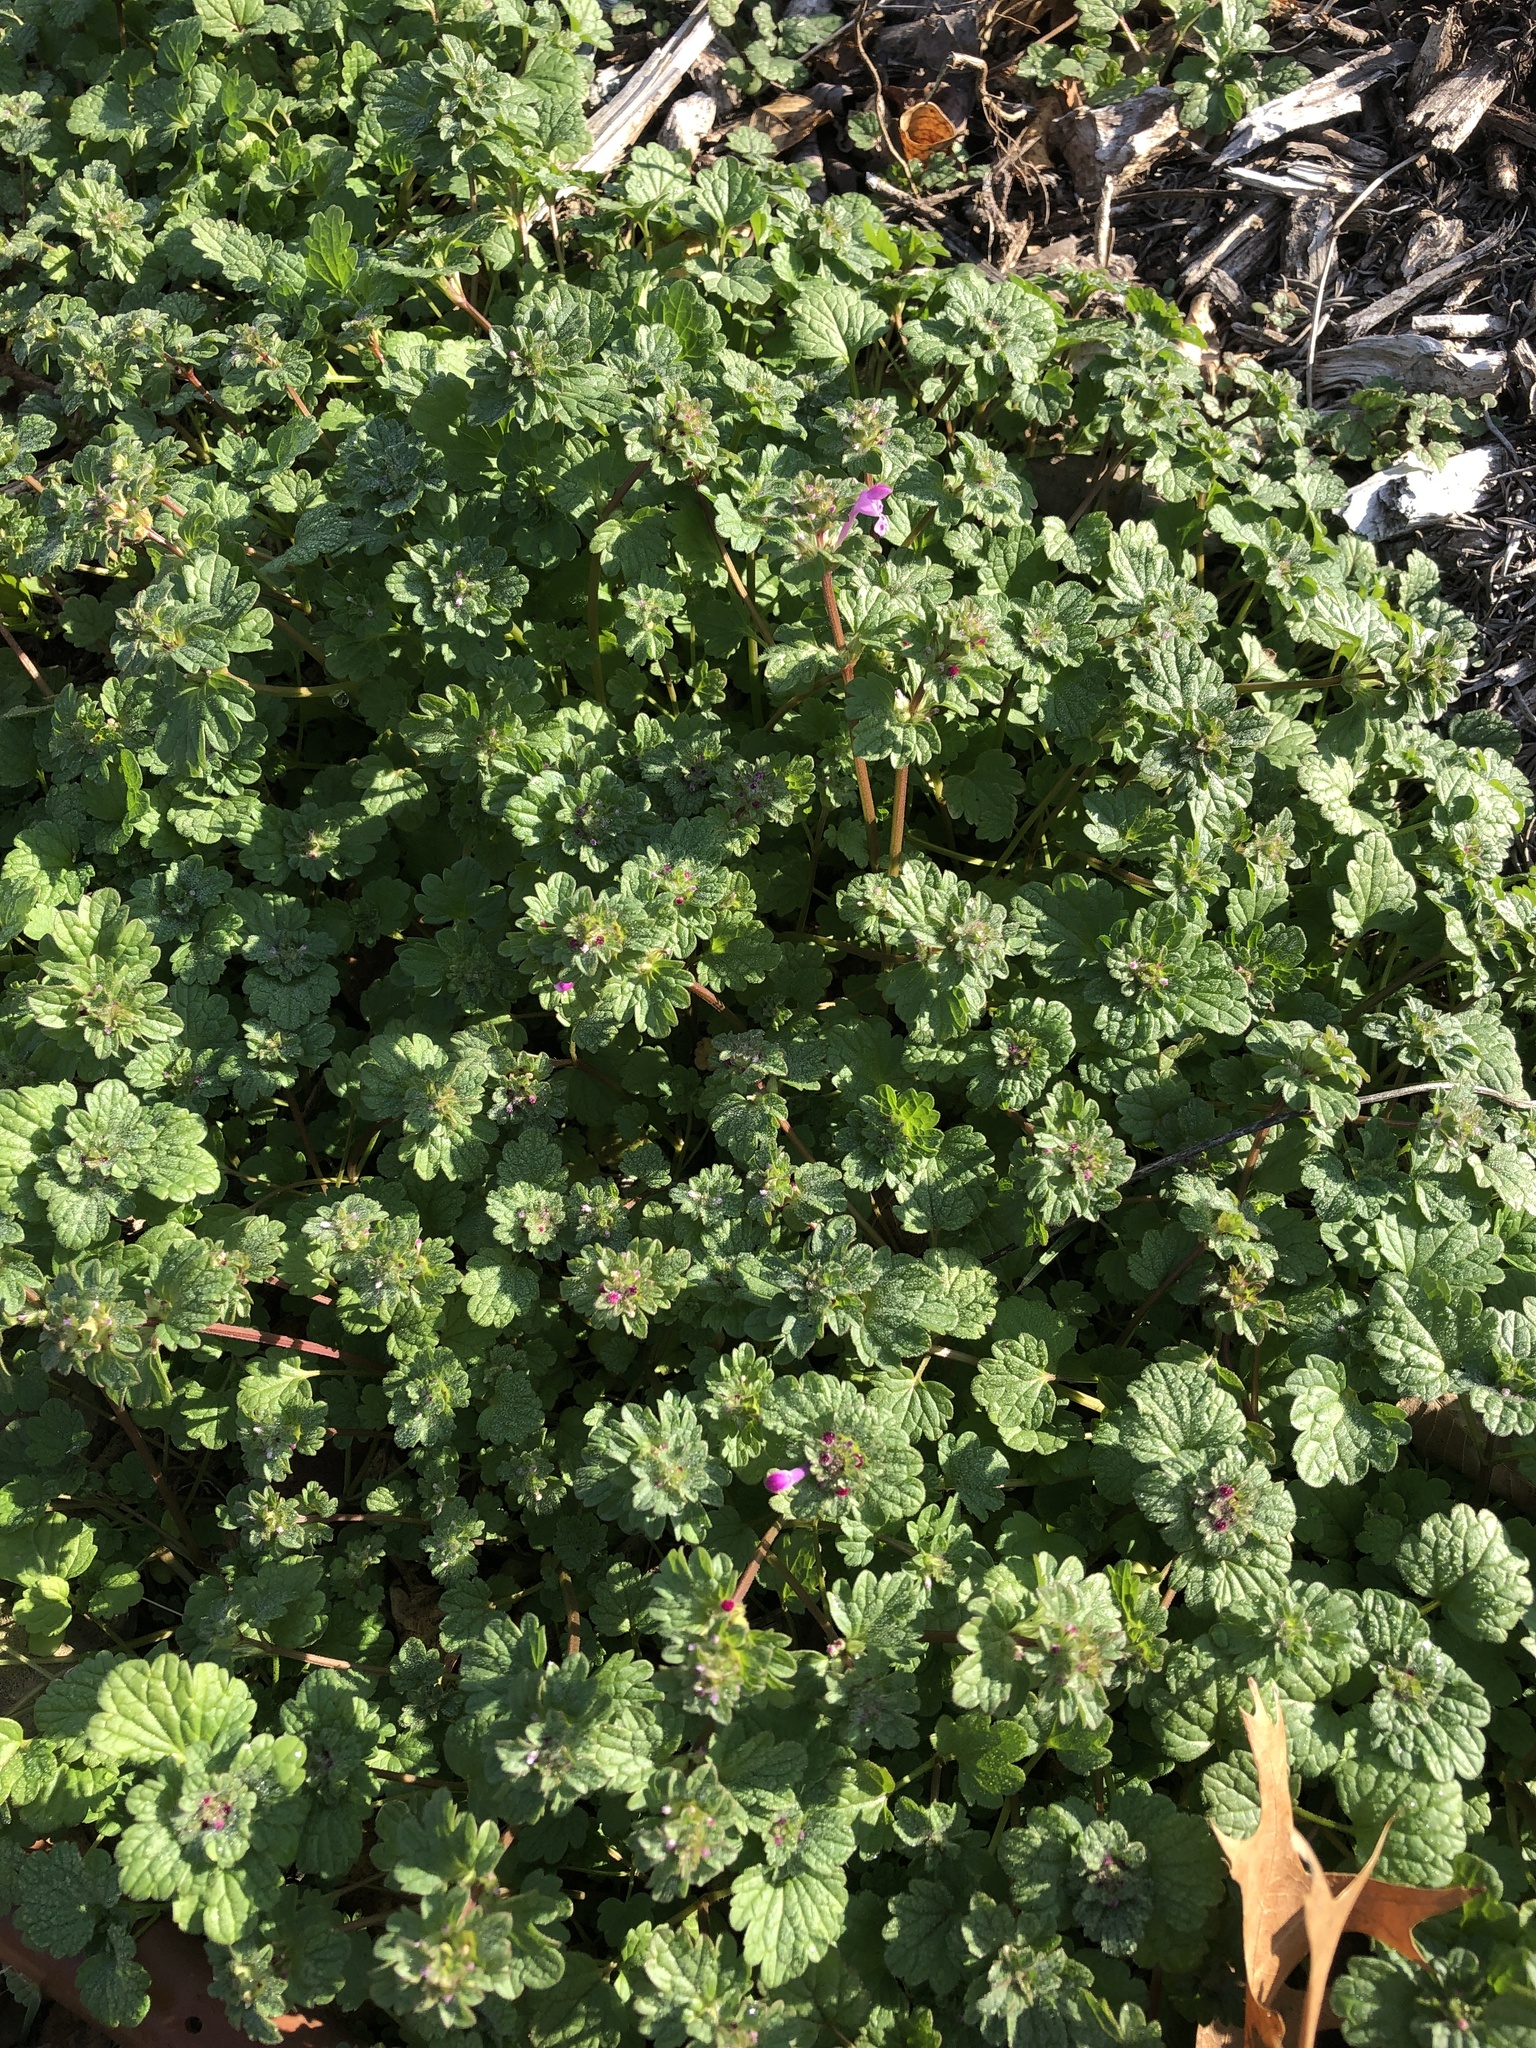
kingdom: Plantae
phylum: Tracheophyta
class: Magnoliopsida
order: Lamiales
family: Lamiaceae
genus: Lamium
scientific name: Lamium amplexicaule
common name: Henbit dead-nettle
